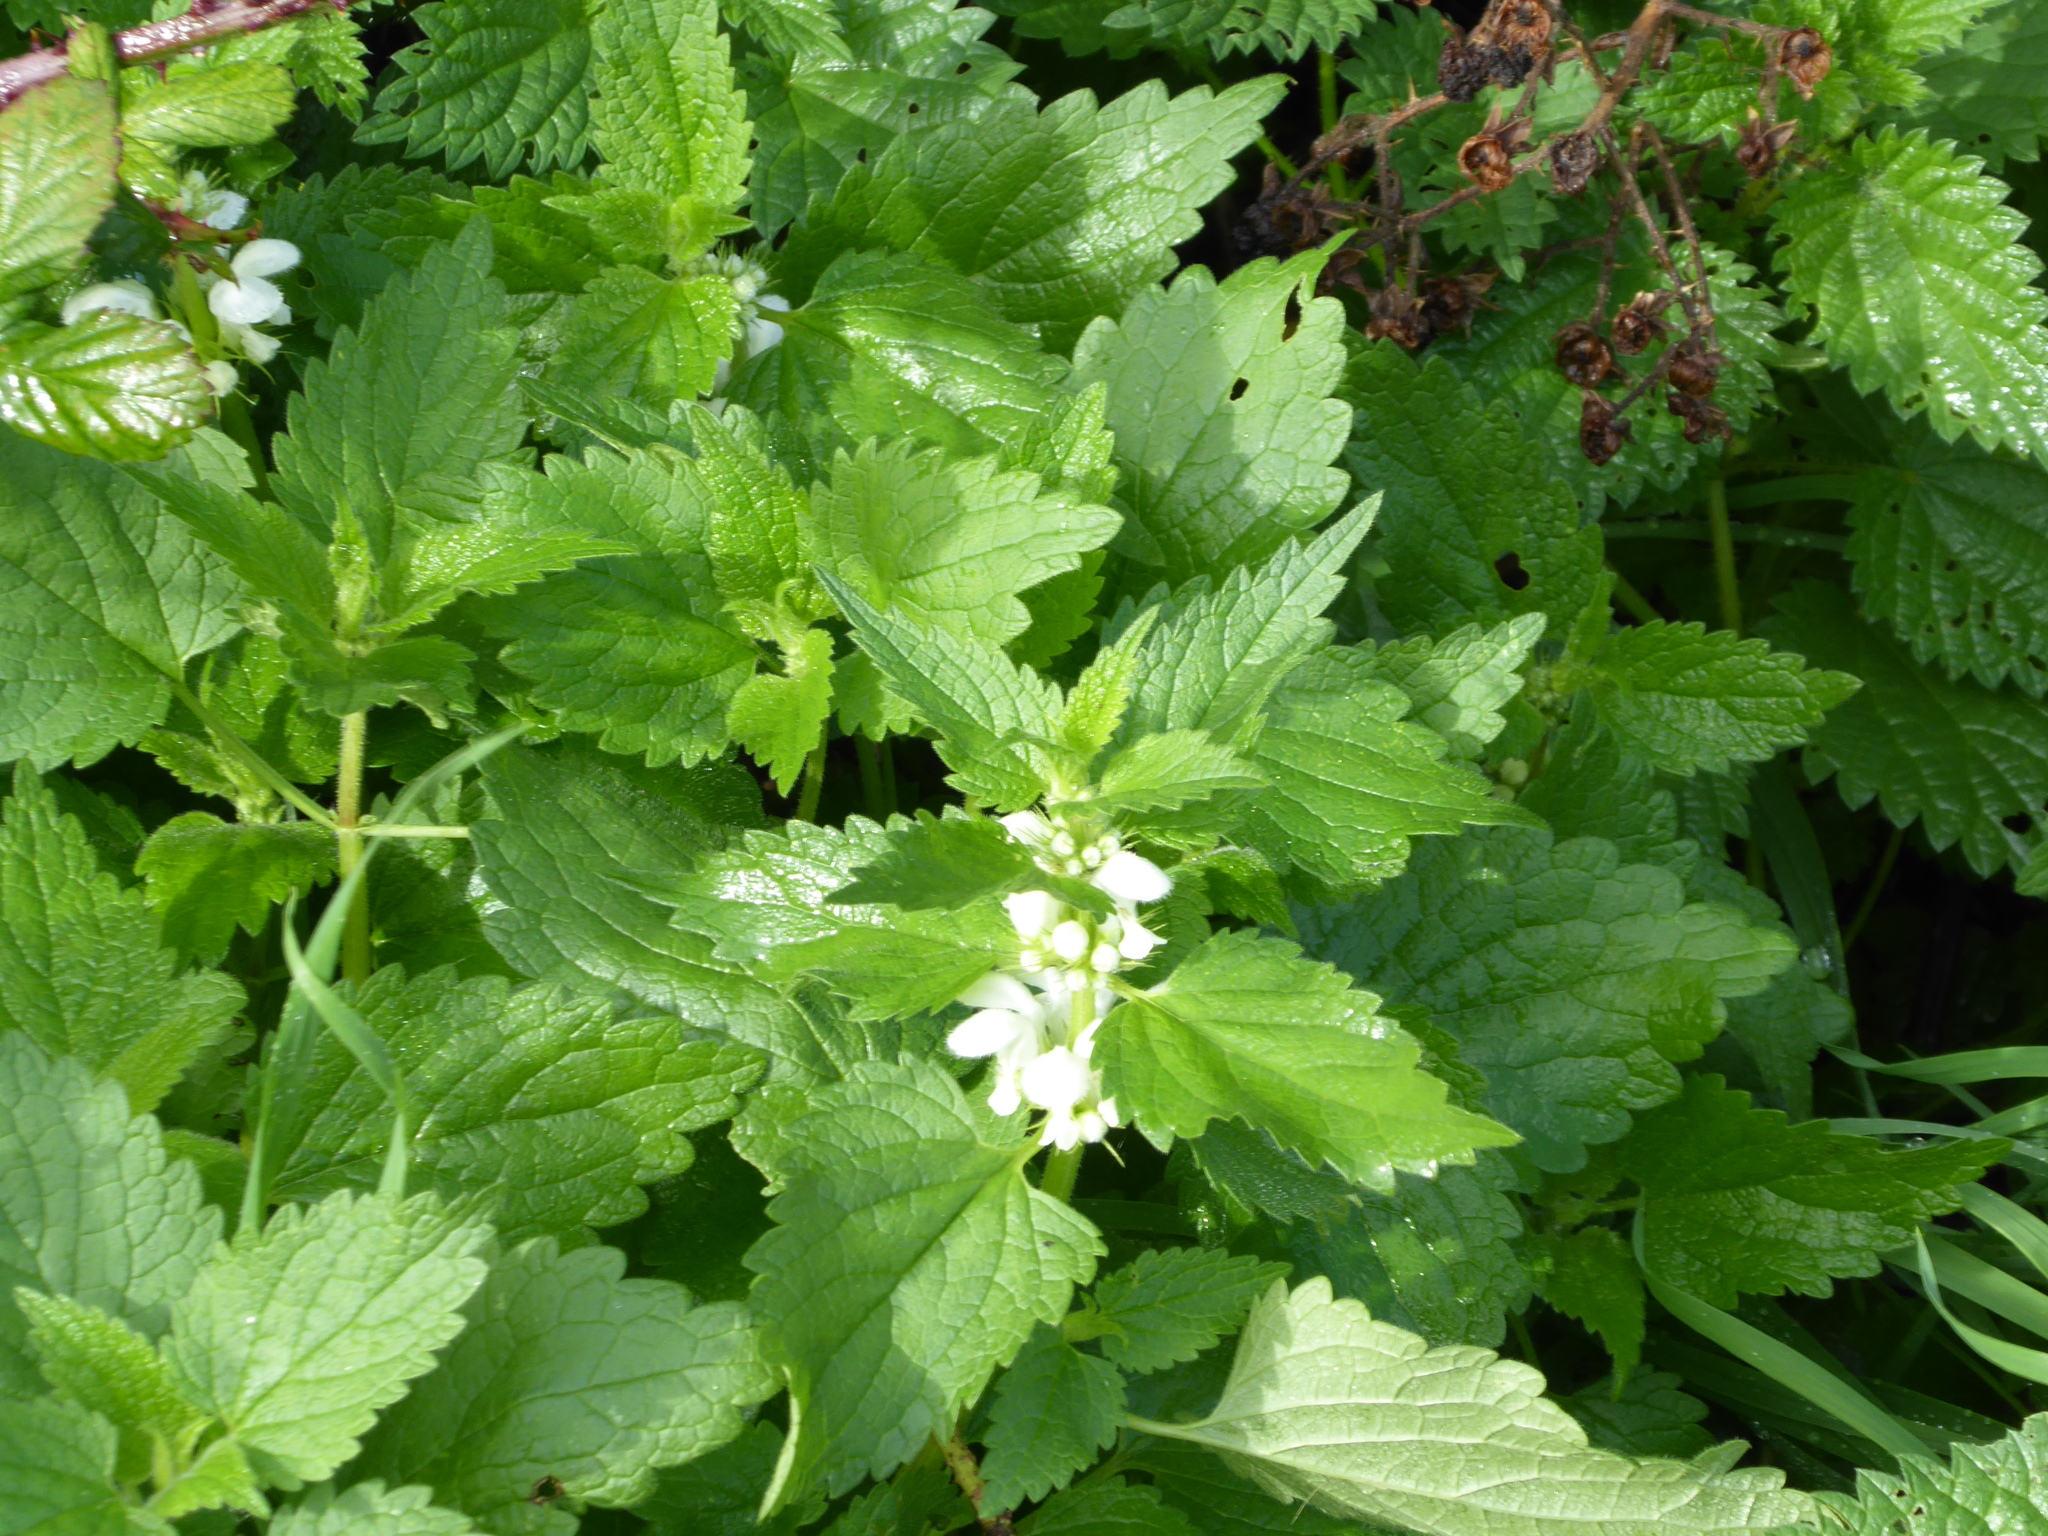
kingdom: Plantae
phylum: Tracheophyta
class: Magnoliopsida
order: Lamiales
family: Lamiaceae
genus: Lamium
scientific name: Lamium album
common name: White dead-nettle
